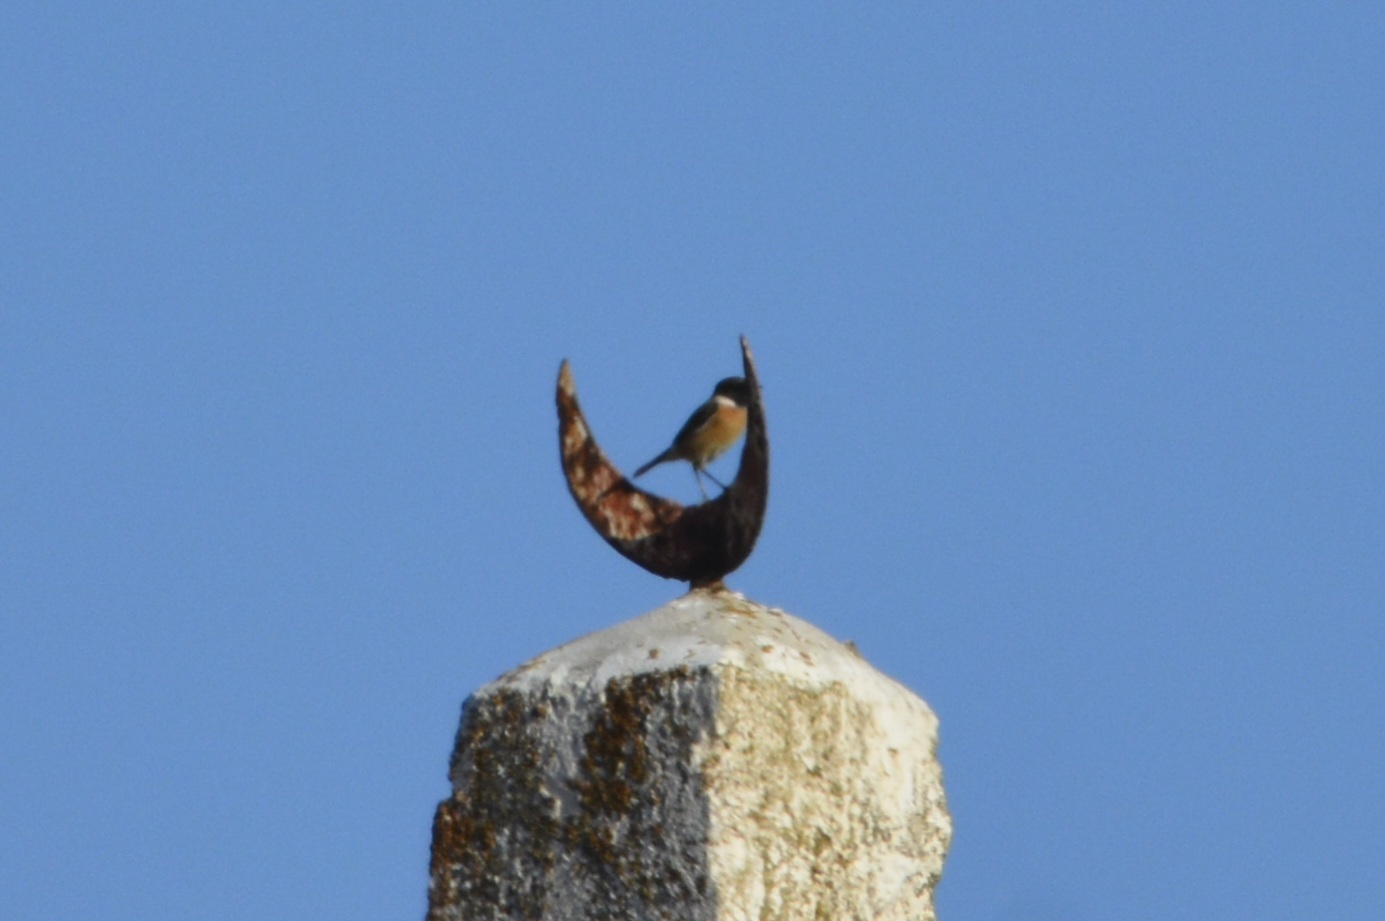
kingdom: Animalia
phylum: Chordata
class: Aves
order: Passeriformes
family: Muscicapidae
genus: Saxicola
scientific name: Saxicola rubicola
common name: European stonechat
